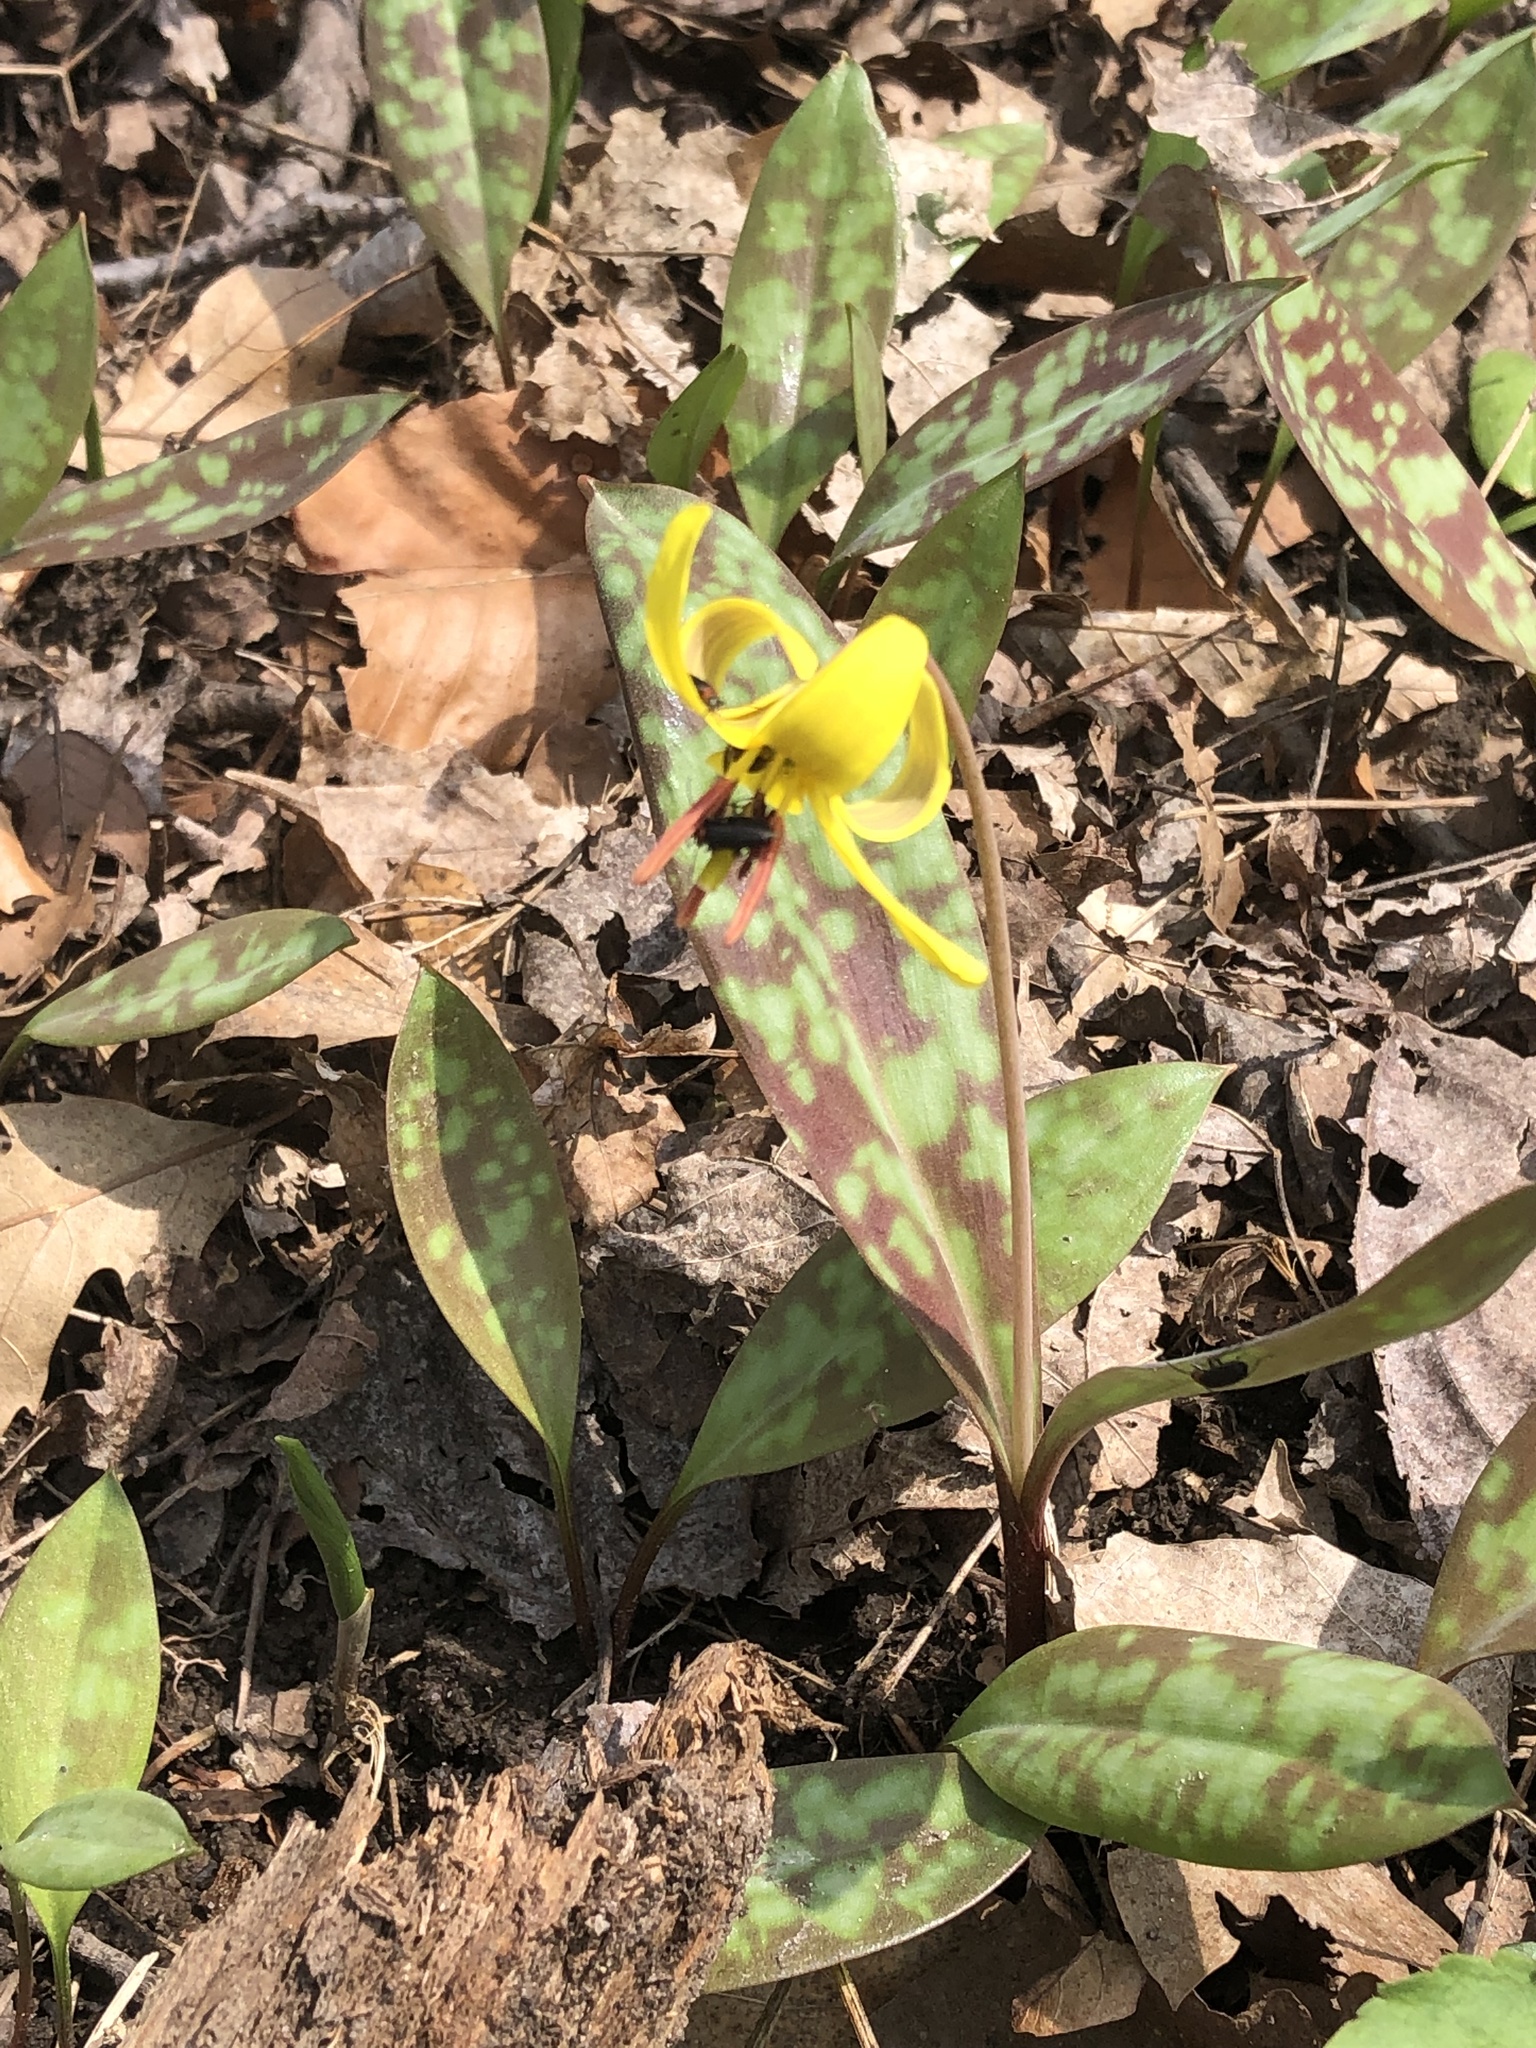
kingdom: Plantae
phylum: Tracheophyta
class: Liliopsida
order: Liliales
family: Liliaceae
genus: Erythronium
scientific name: Erythronium americanum
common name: Yellow adder's-tongue
